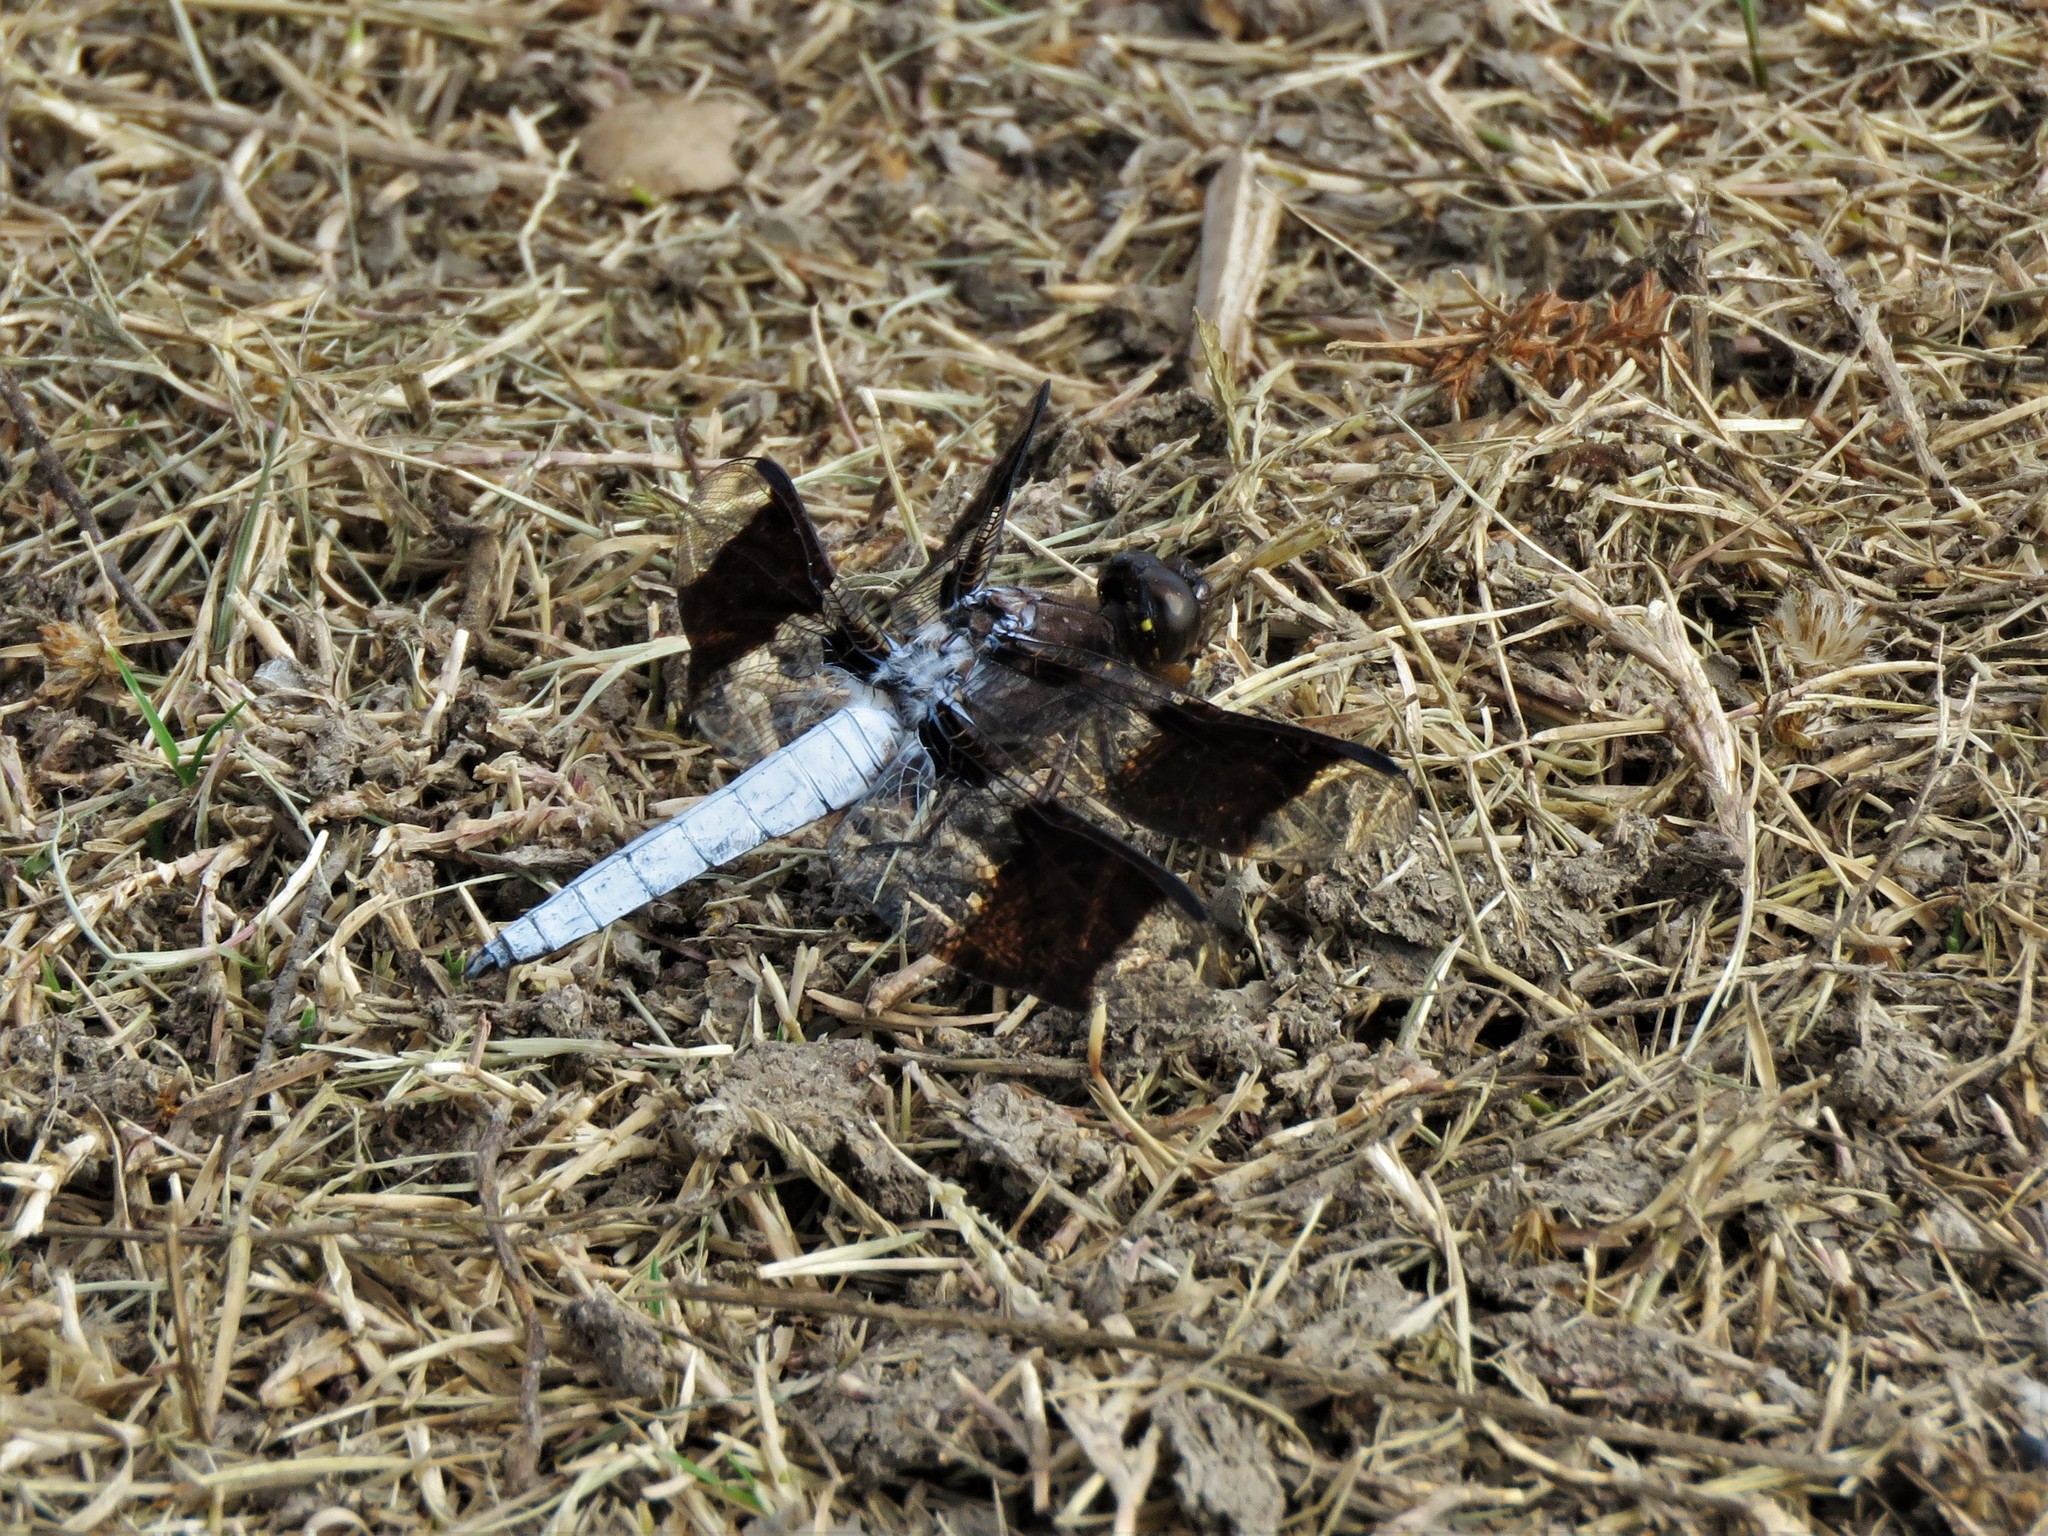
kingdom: Animalia
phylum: Arthropoda
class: Insecta
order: Odonata
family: Libellulidae
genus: Plathemis
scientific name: Plathemis lydia
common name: Common whitetail
